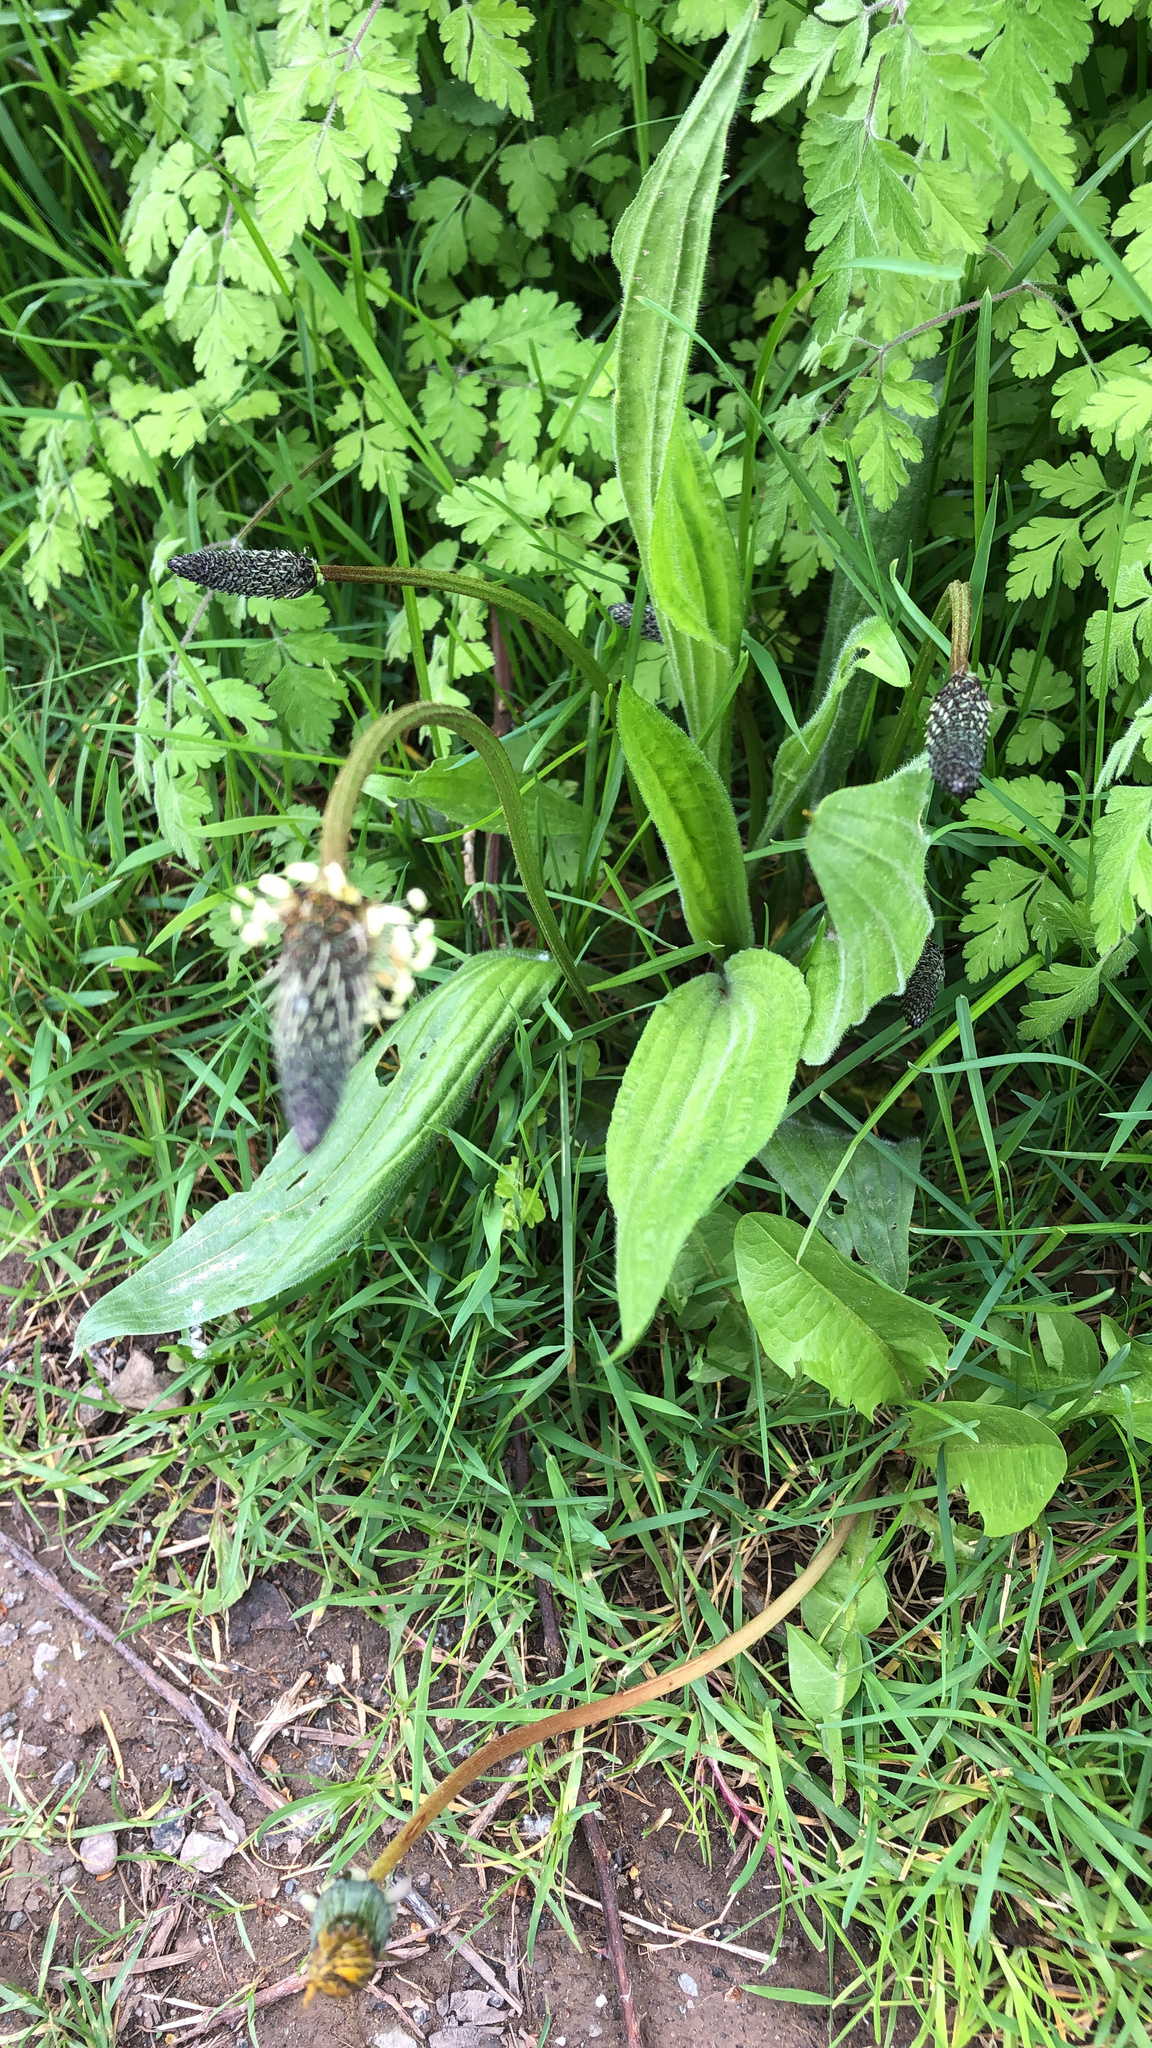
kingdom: Plantae
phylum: Tracheophyta
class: Magnoliopsida
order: Lamiales
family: Plantaginaceae
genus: Plantago
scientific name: Plantago lanceolata
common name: Ribwort plantain
